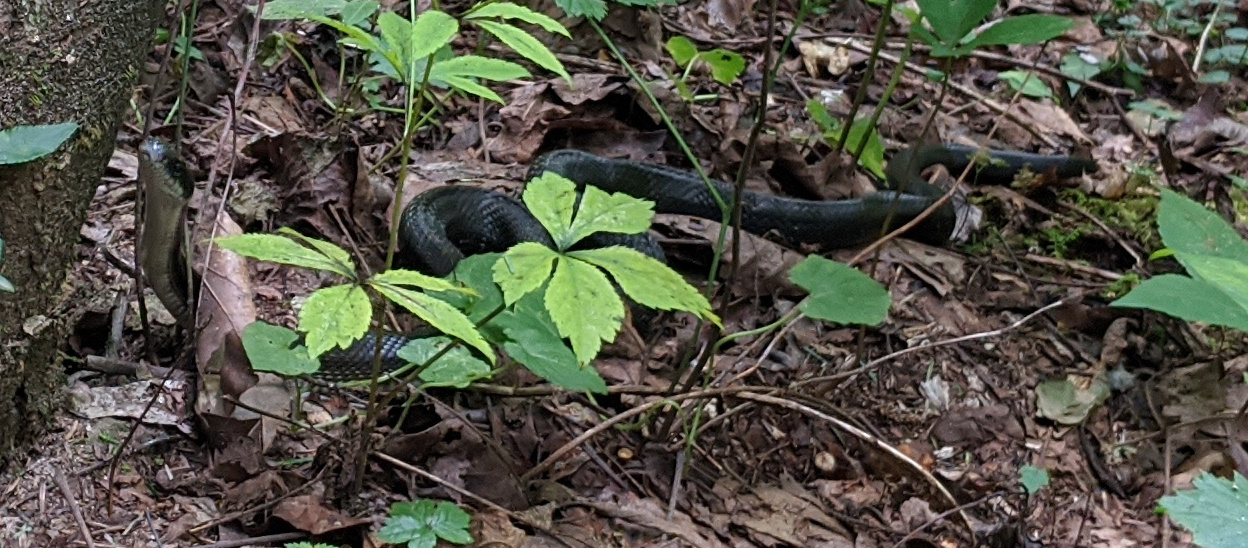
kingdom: Animalia
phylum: Chordata
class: Squamata
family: Colubridae
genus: Pantherophis
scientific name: Pantherophis spiloides
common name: Gray rat snake
